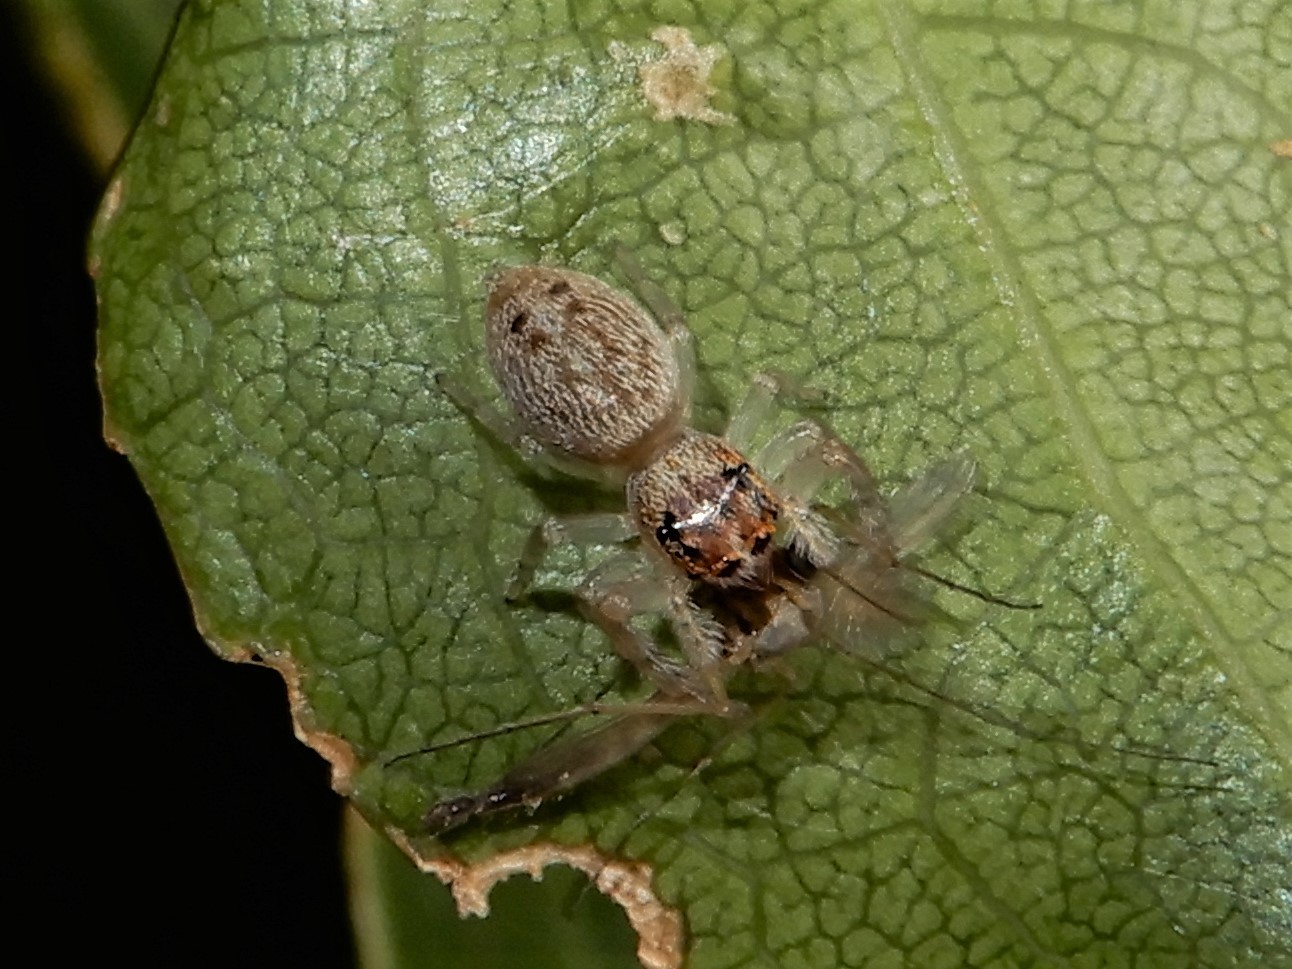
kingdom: Animalia
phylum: Arthropoda
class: Arachnida
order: Araneae
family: Salticidae
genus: Opisthoncus
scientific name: Opisthoncus polyphemus
